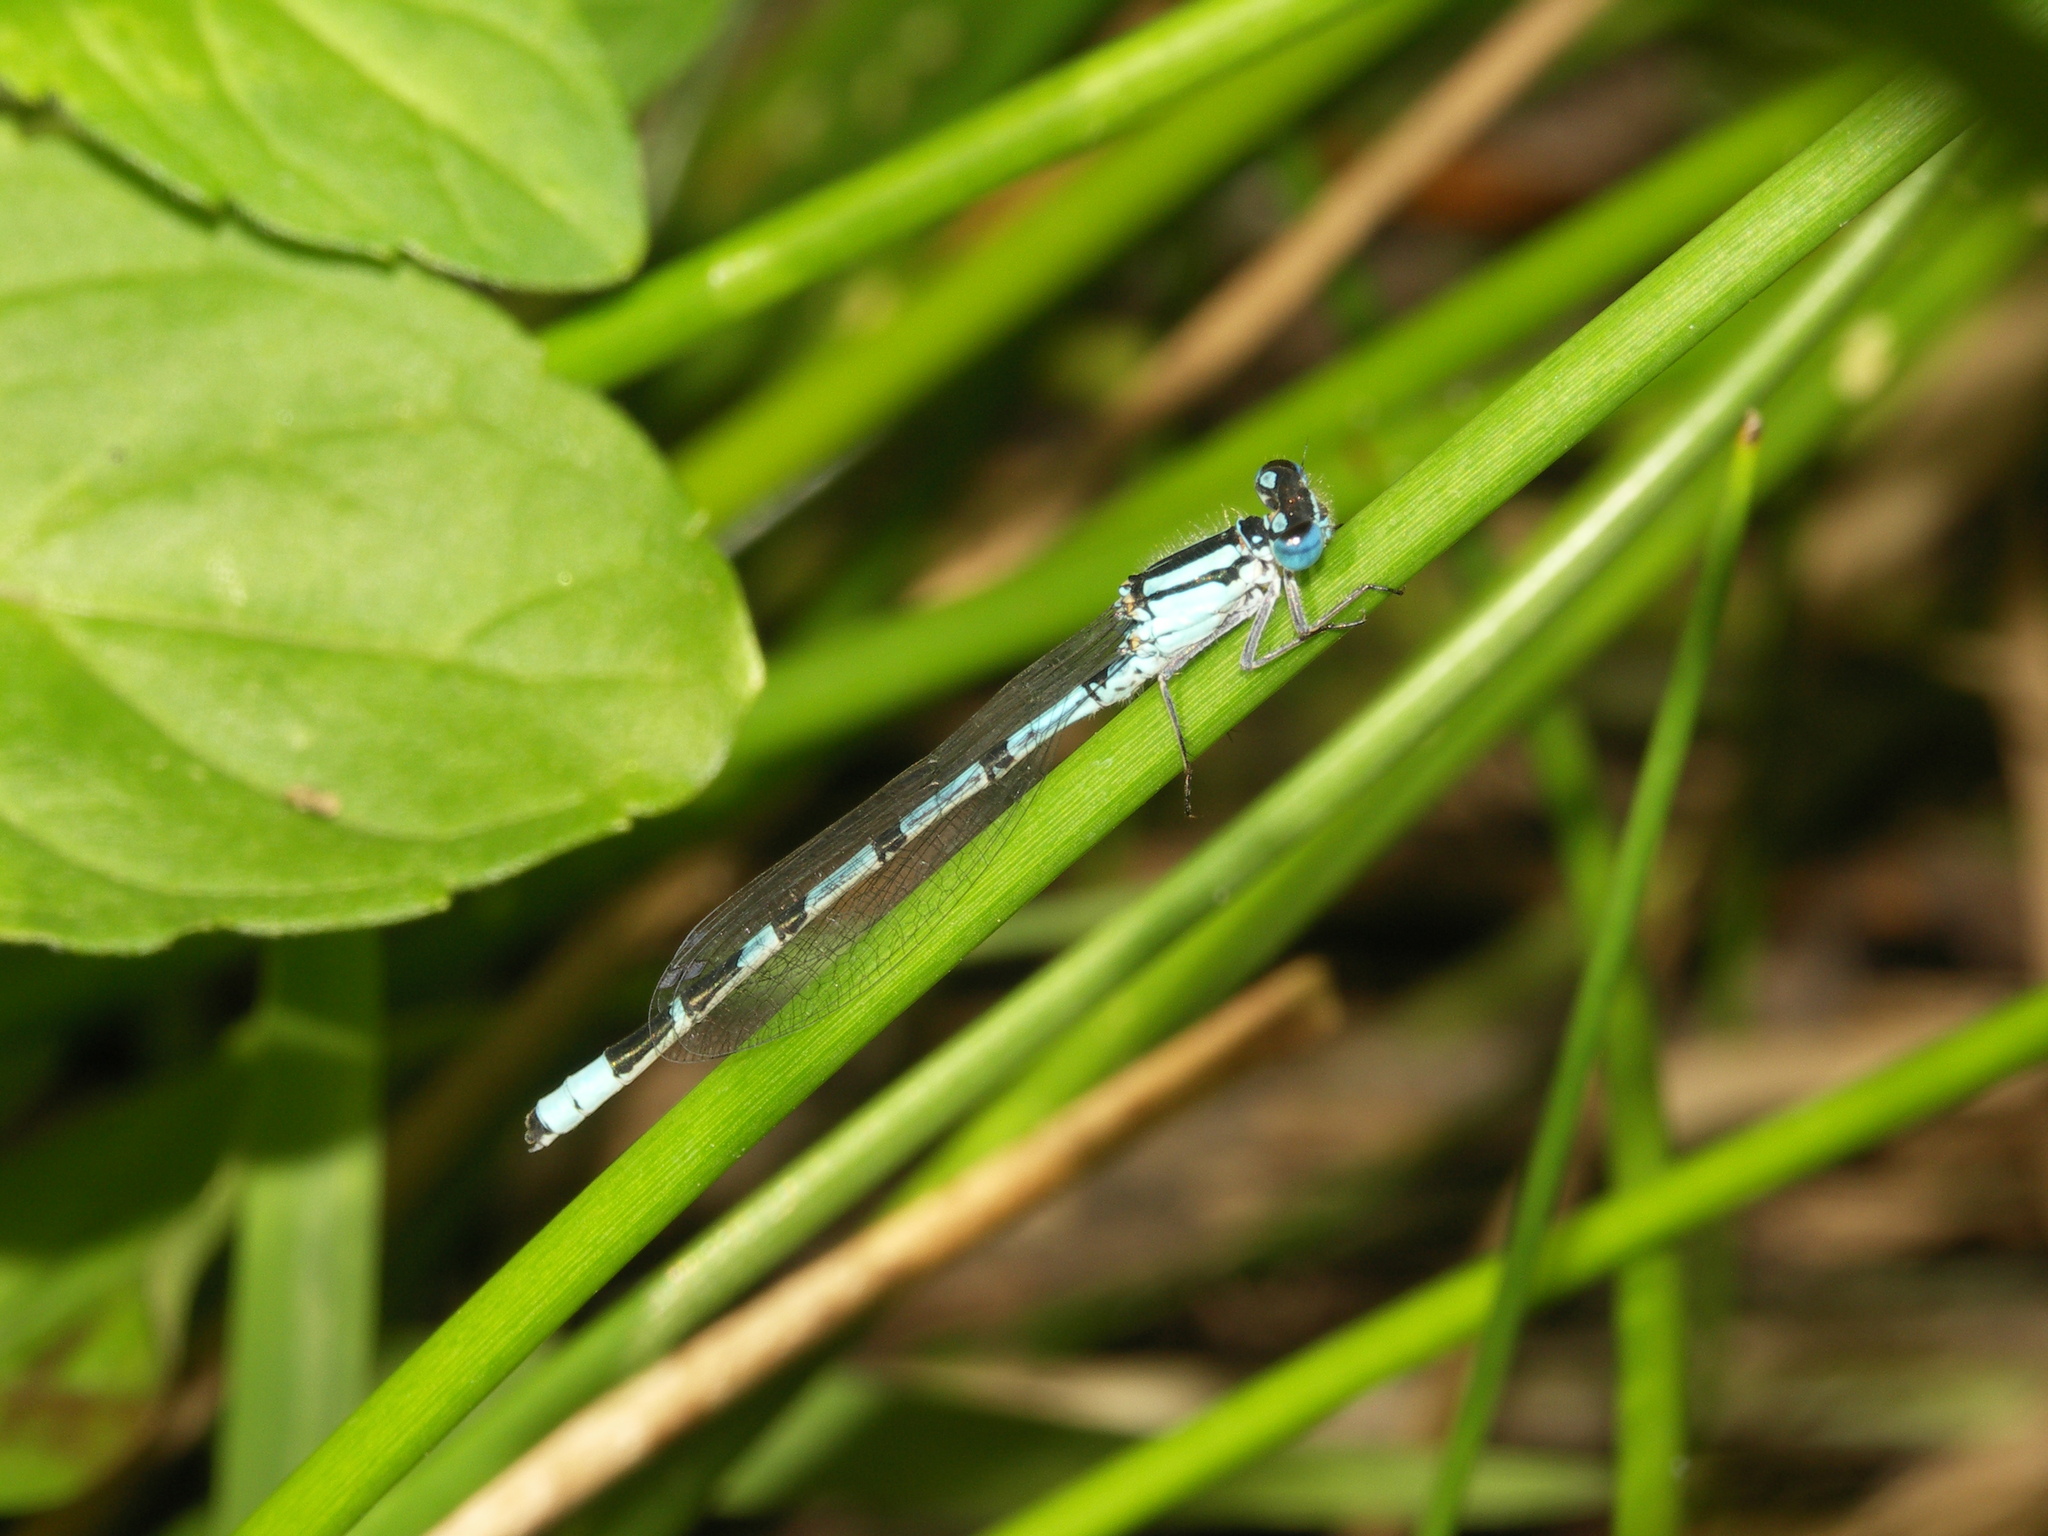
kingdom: Animalia
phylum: Arthropoda
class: Insecta
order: Odonata
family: Coenagrionidae
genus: Enallagma
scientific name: Enallagma cyathigerum
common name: Common blue damselfly
